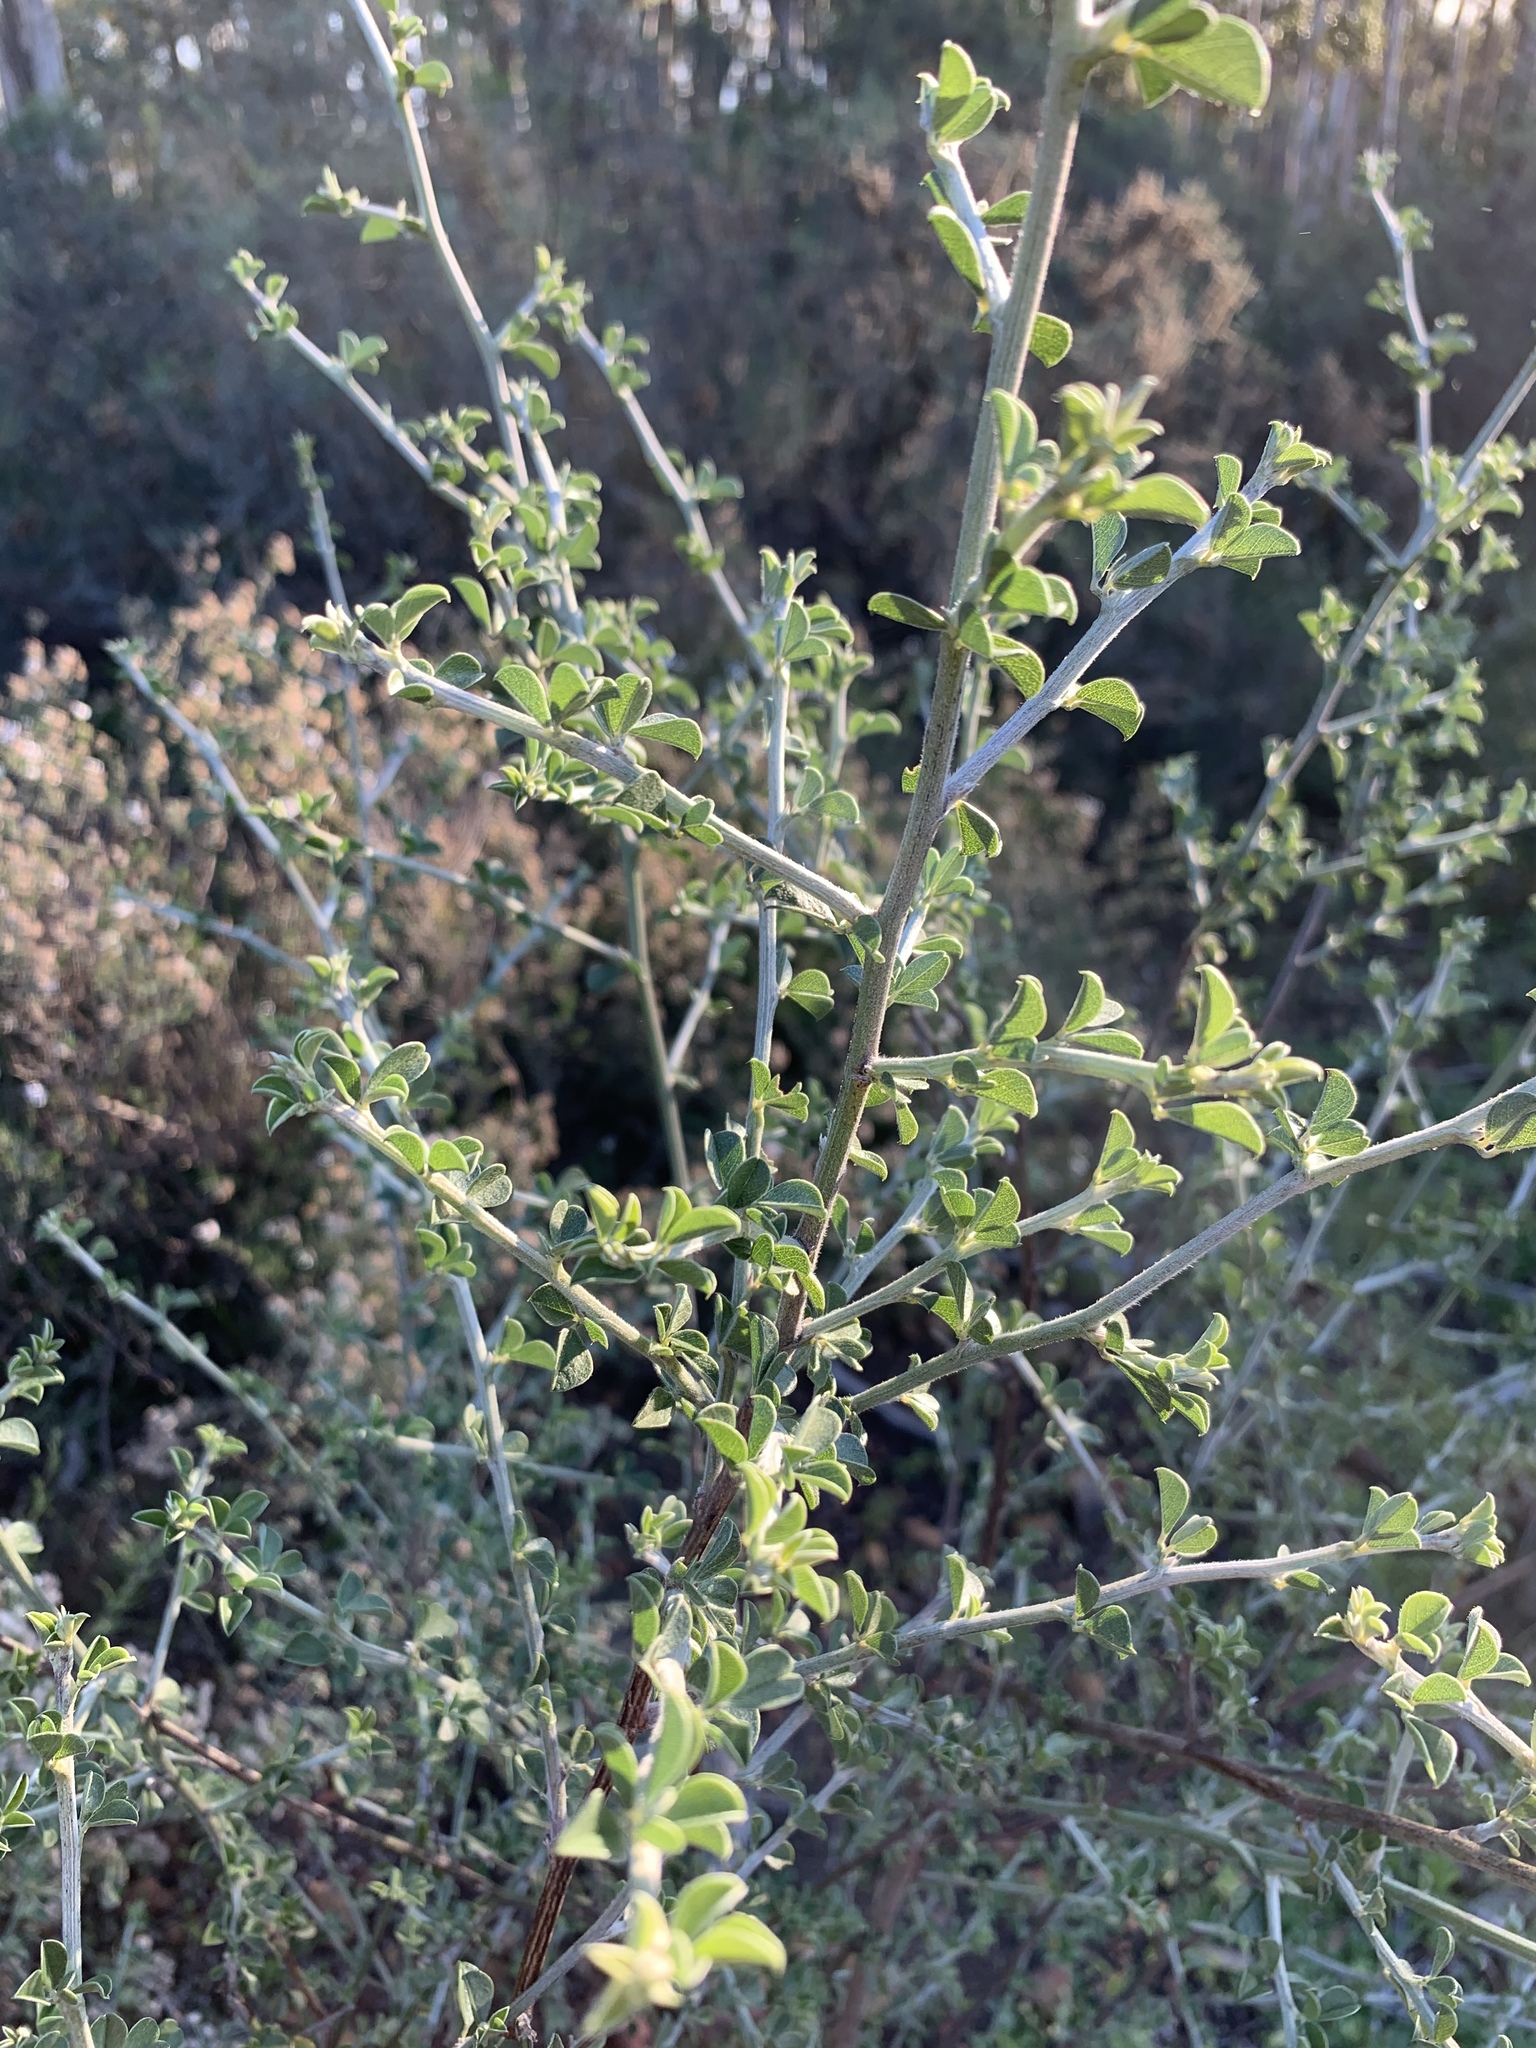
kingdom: Plantae
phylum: Tracheophyta
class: Magnoliopsida
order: Fabales
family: Fabaceae
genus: Psoralea
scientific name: Psoralea hirta
